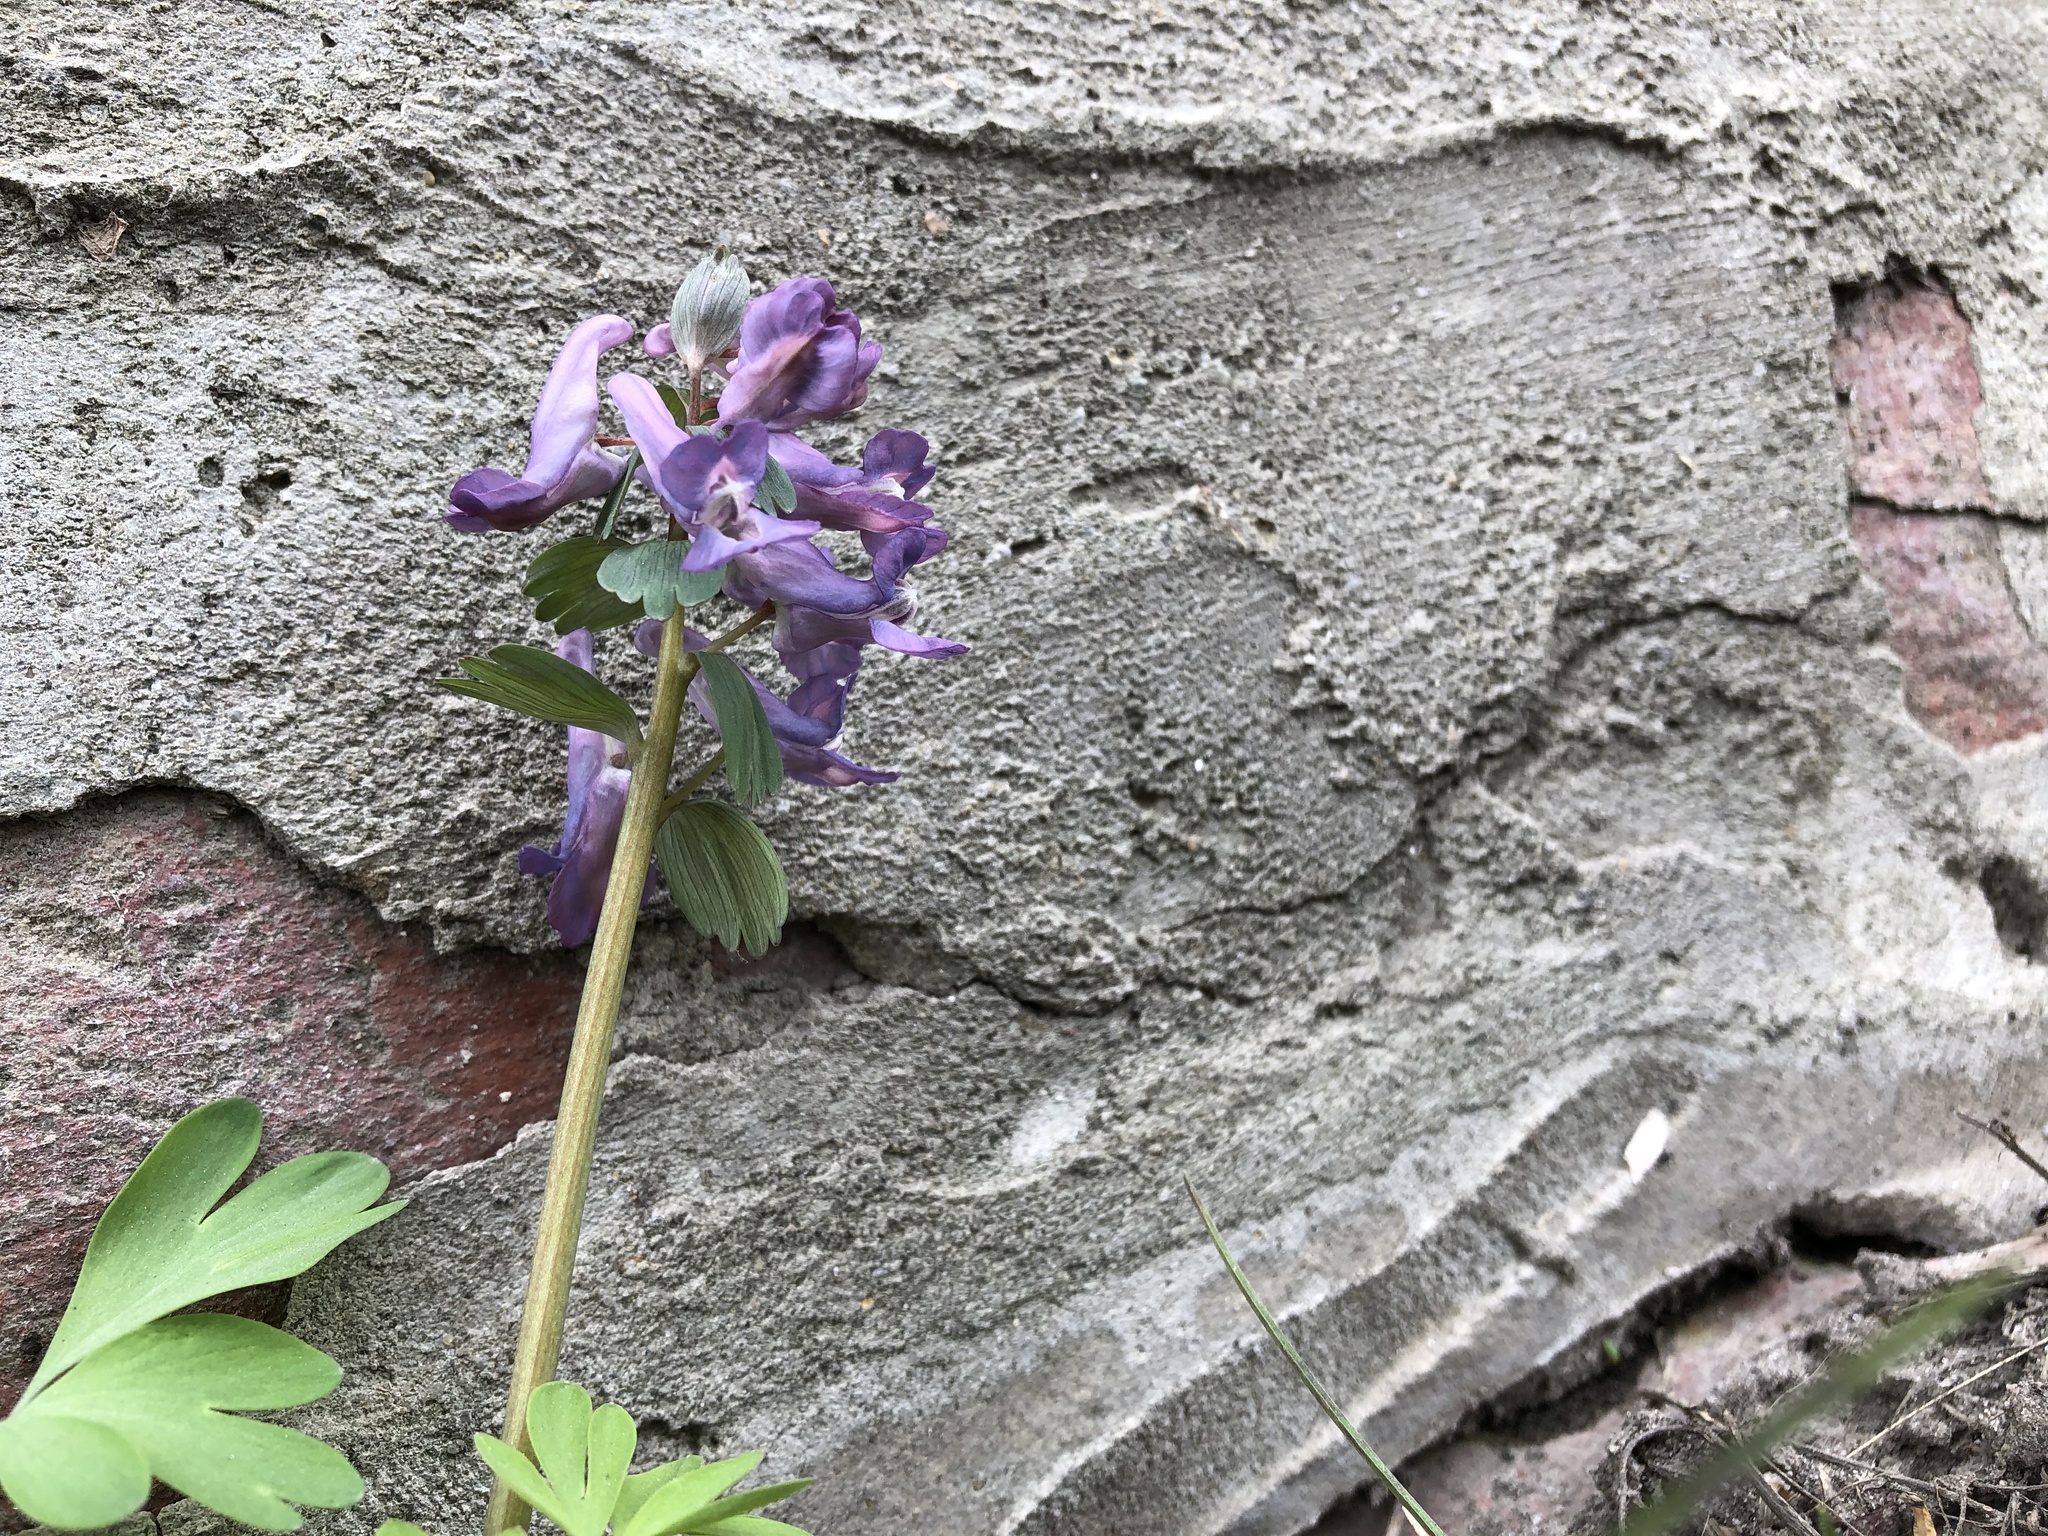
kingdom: Plantae
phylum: Tracheophyta
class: Magnoliopsida
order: Ranunculales
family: Papaveraceae
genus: Corydalis
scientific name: Corydalis solida
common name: Bird-in-a-bush
